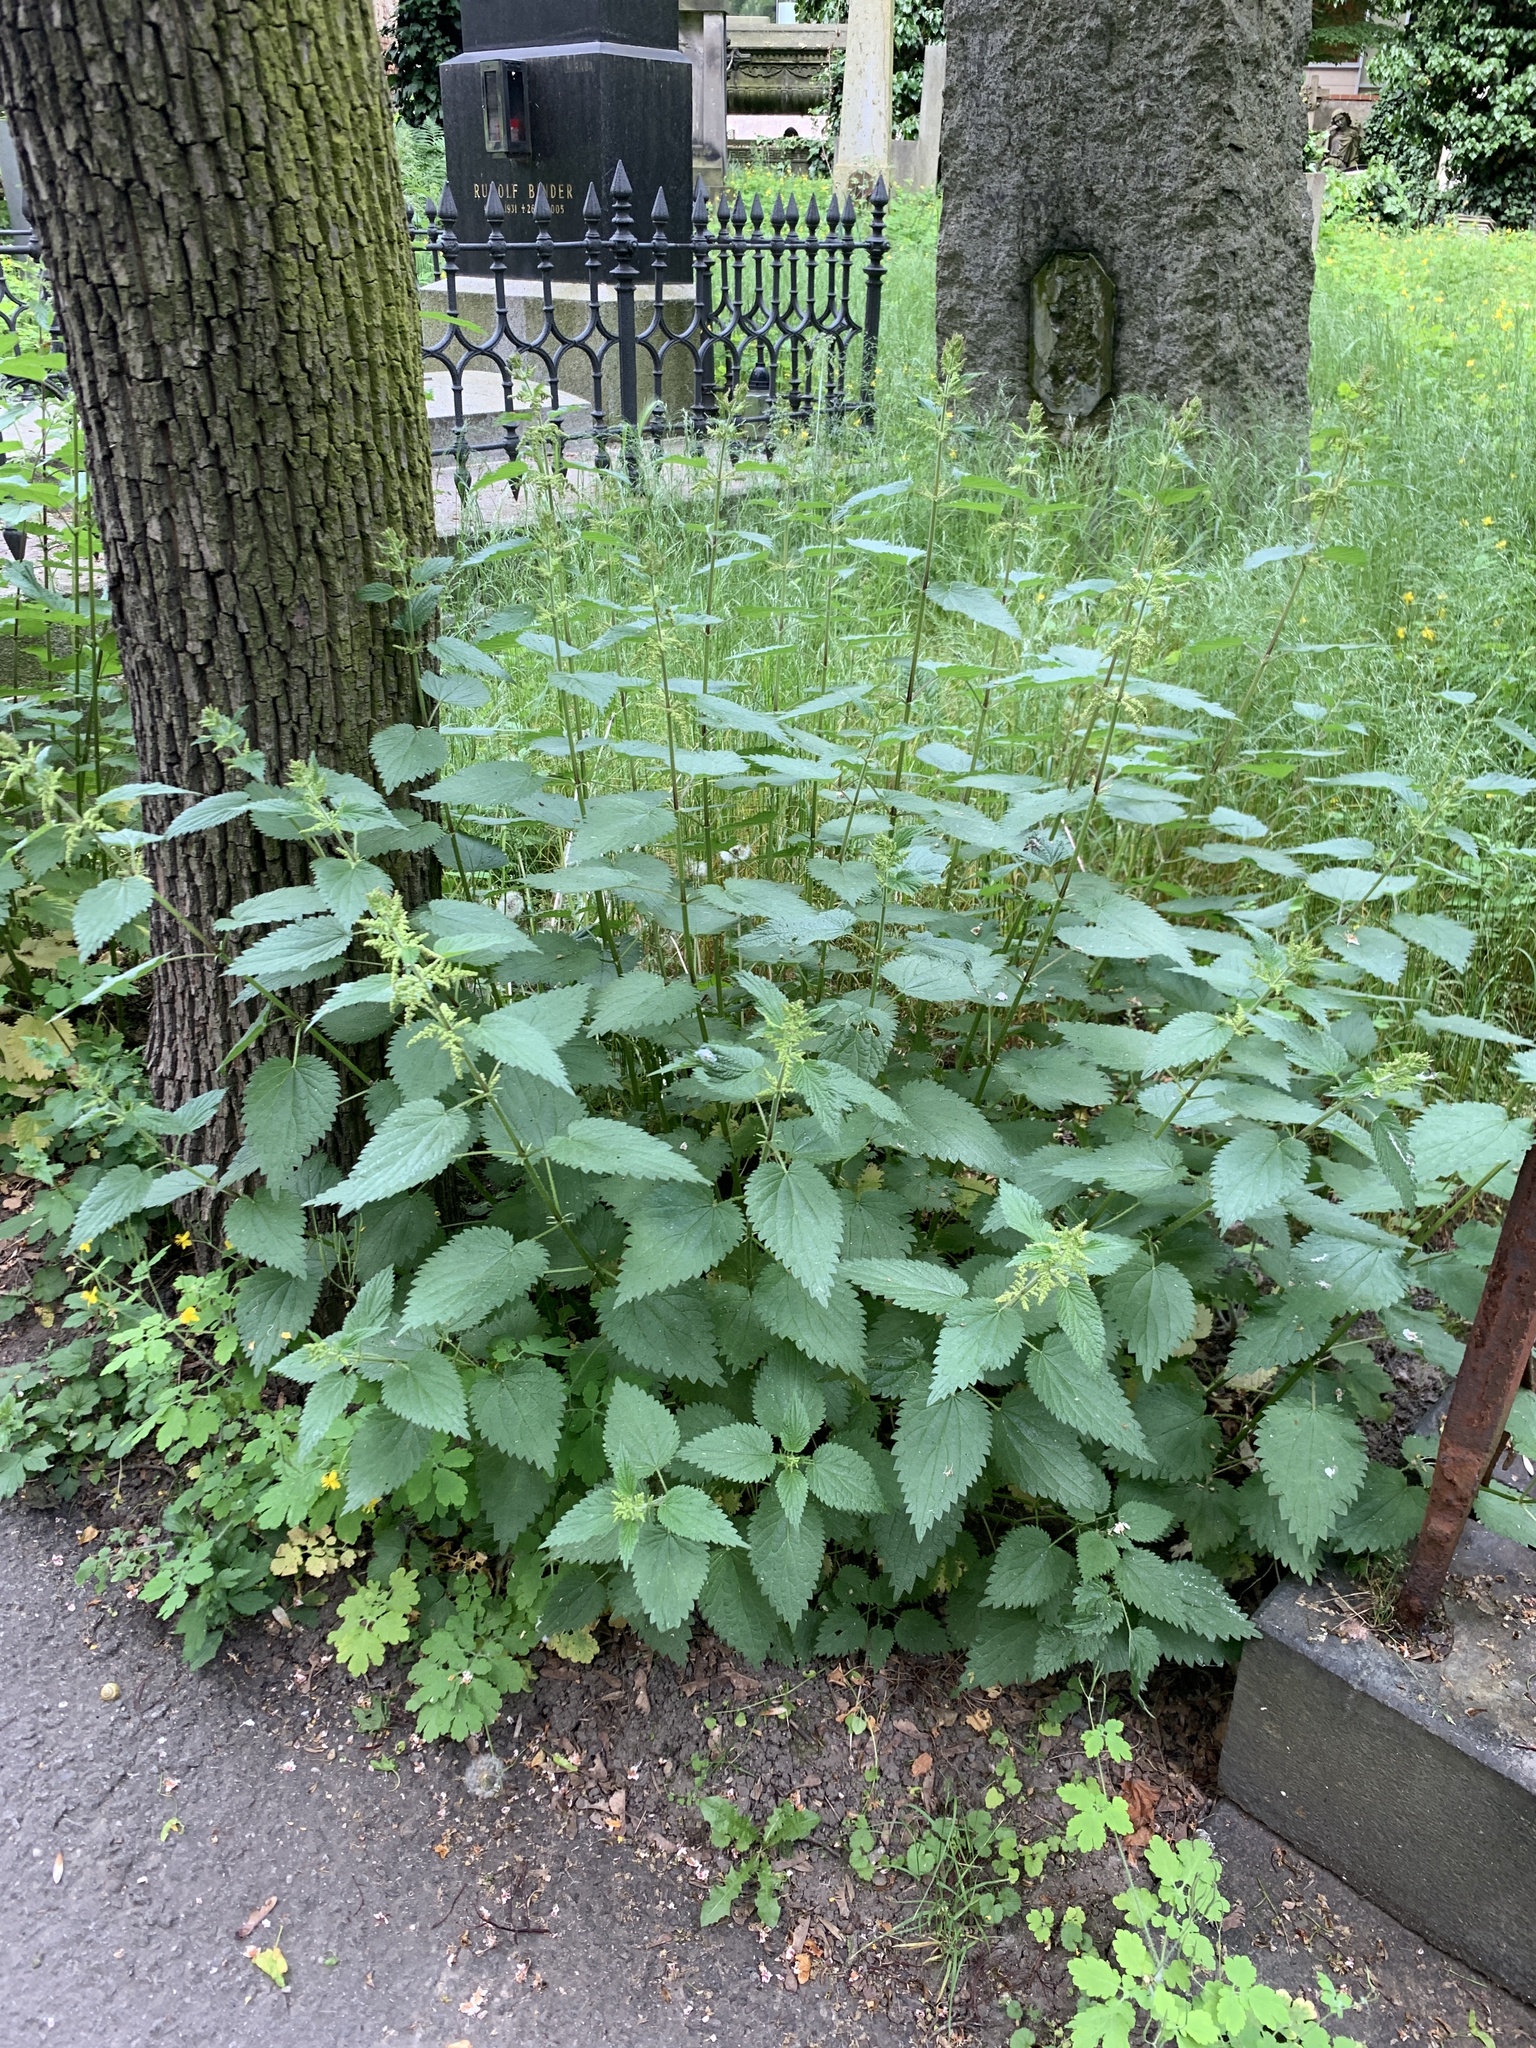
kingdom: Plantae
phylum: Tracheophyta
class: Magnoliopsida
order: Rosales
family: Urticaceae
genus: Urtica
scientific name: Urtica dioica
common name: Common nettle
